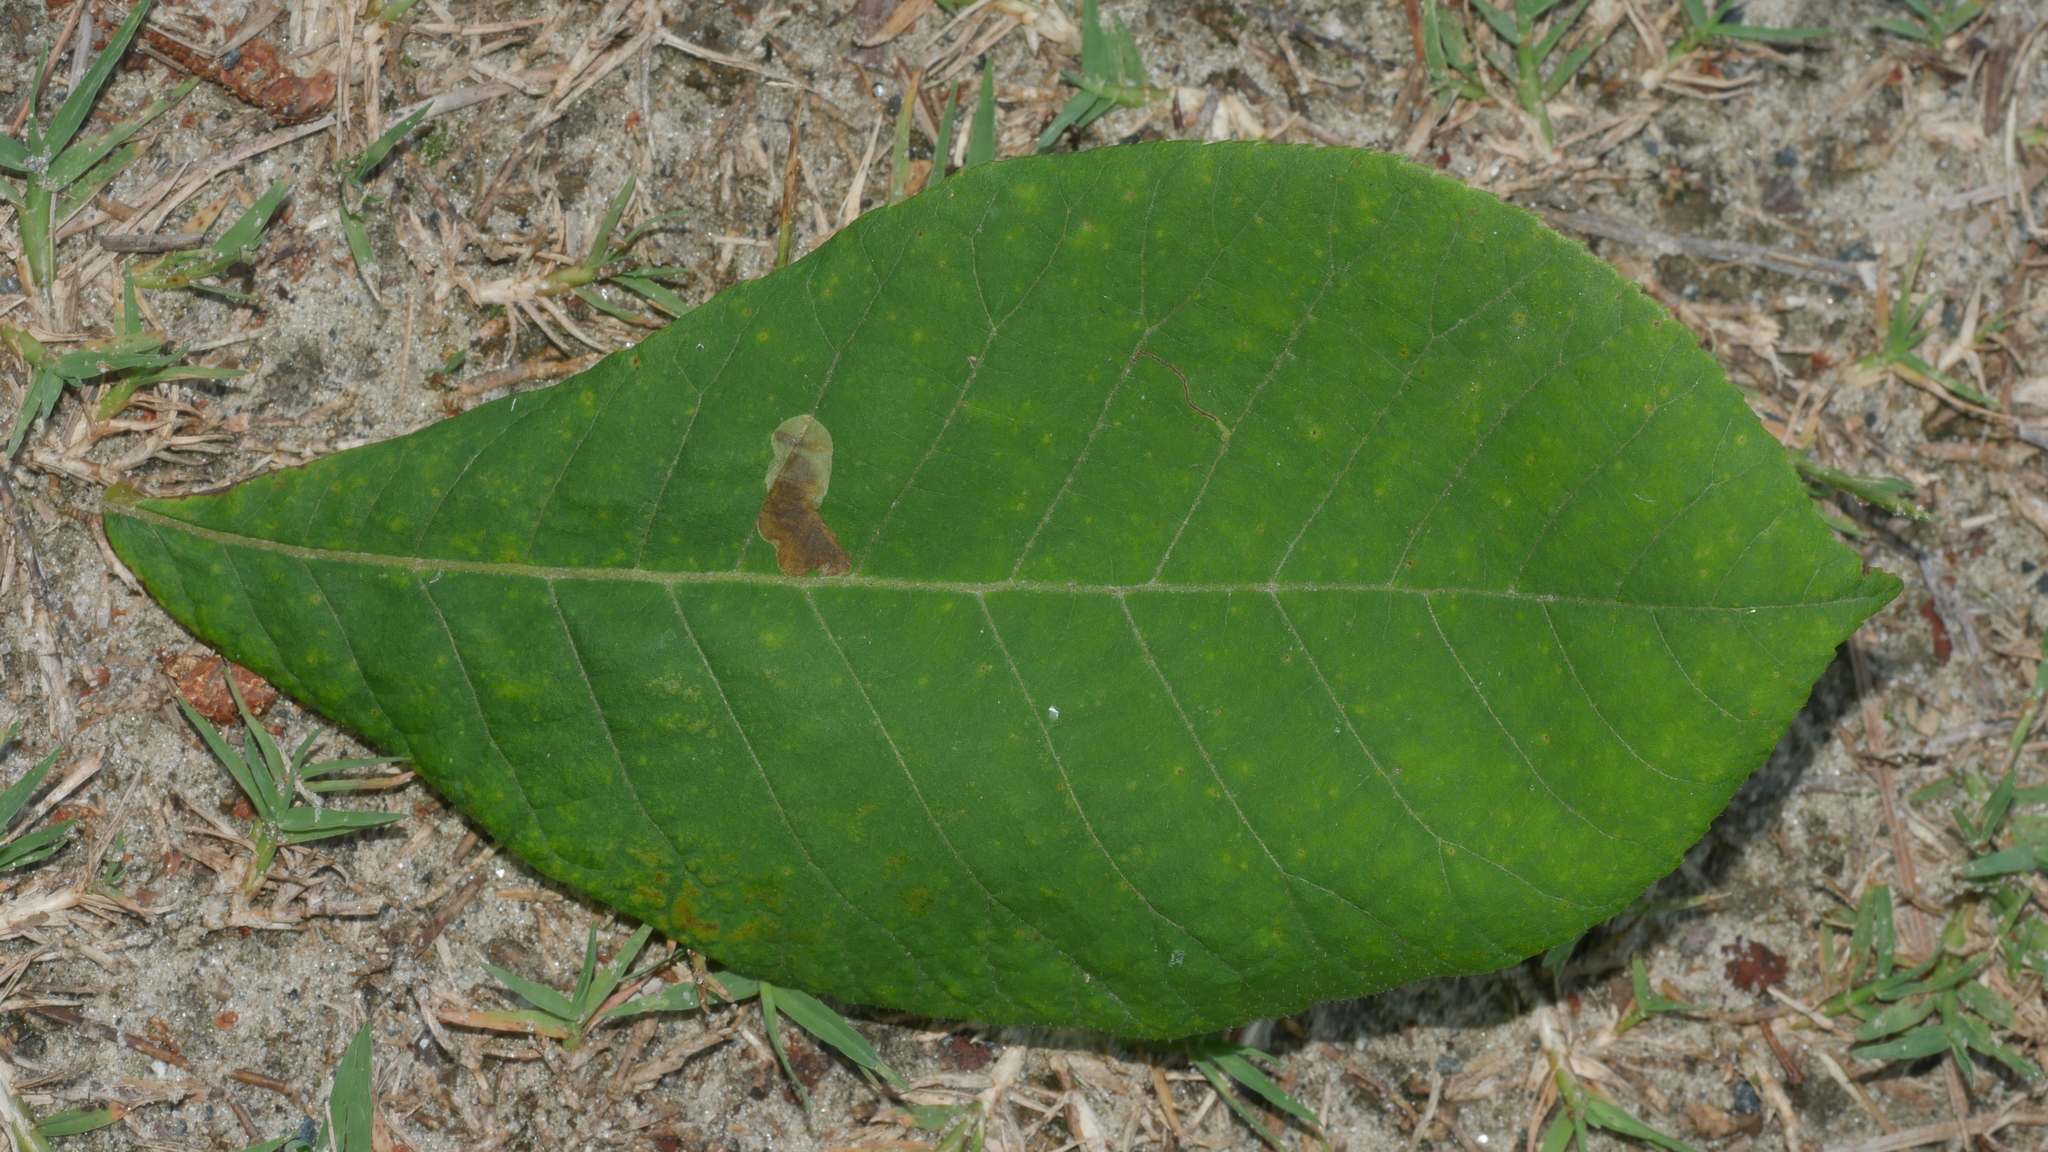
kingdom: Animalia
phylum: Arthropoda
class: Insecta
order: Lepidoptera
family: Gracillariidae
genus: Cameraria
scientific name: Cameraria caryaefoliella
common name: Pecan leafminer moth
